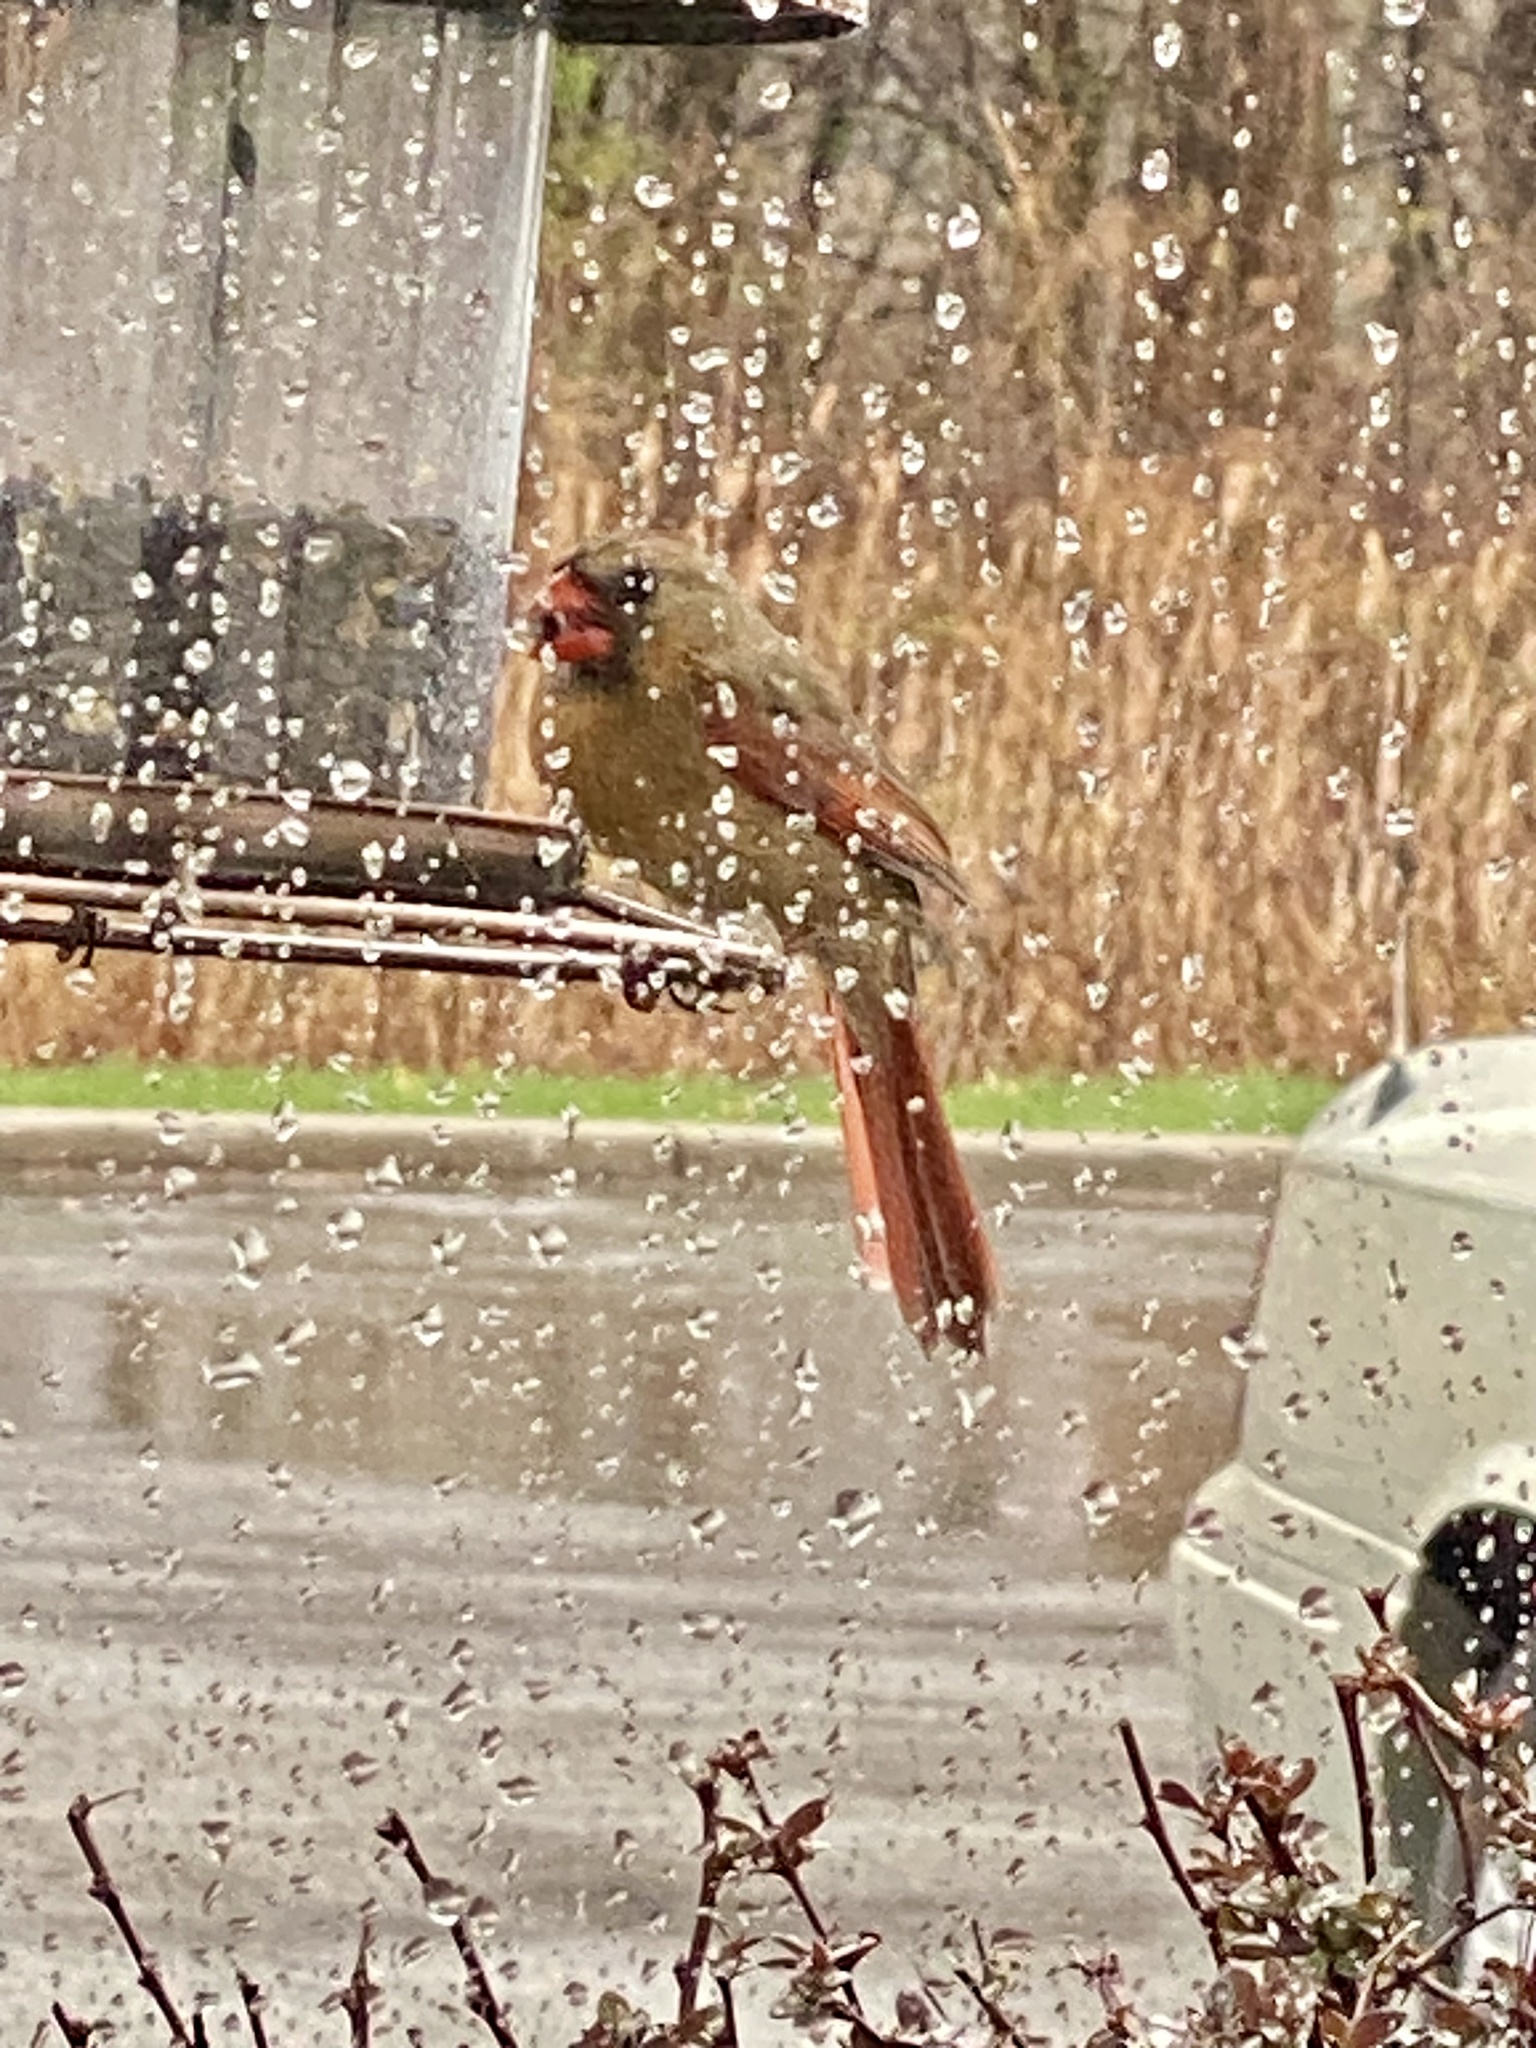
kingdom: Animalia
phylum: Chordata
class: Aves
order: Passeriformes
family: Cardinalidae
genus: Cardinalis
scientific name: Cardinalis cardinalis
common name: Northern cardinal
